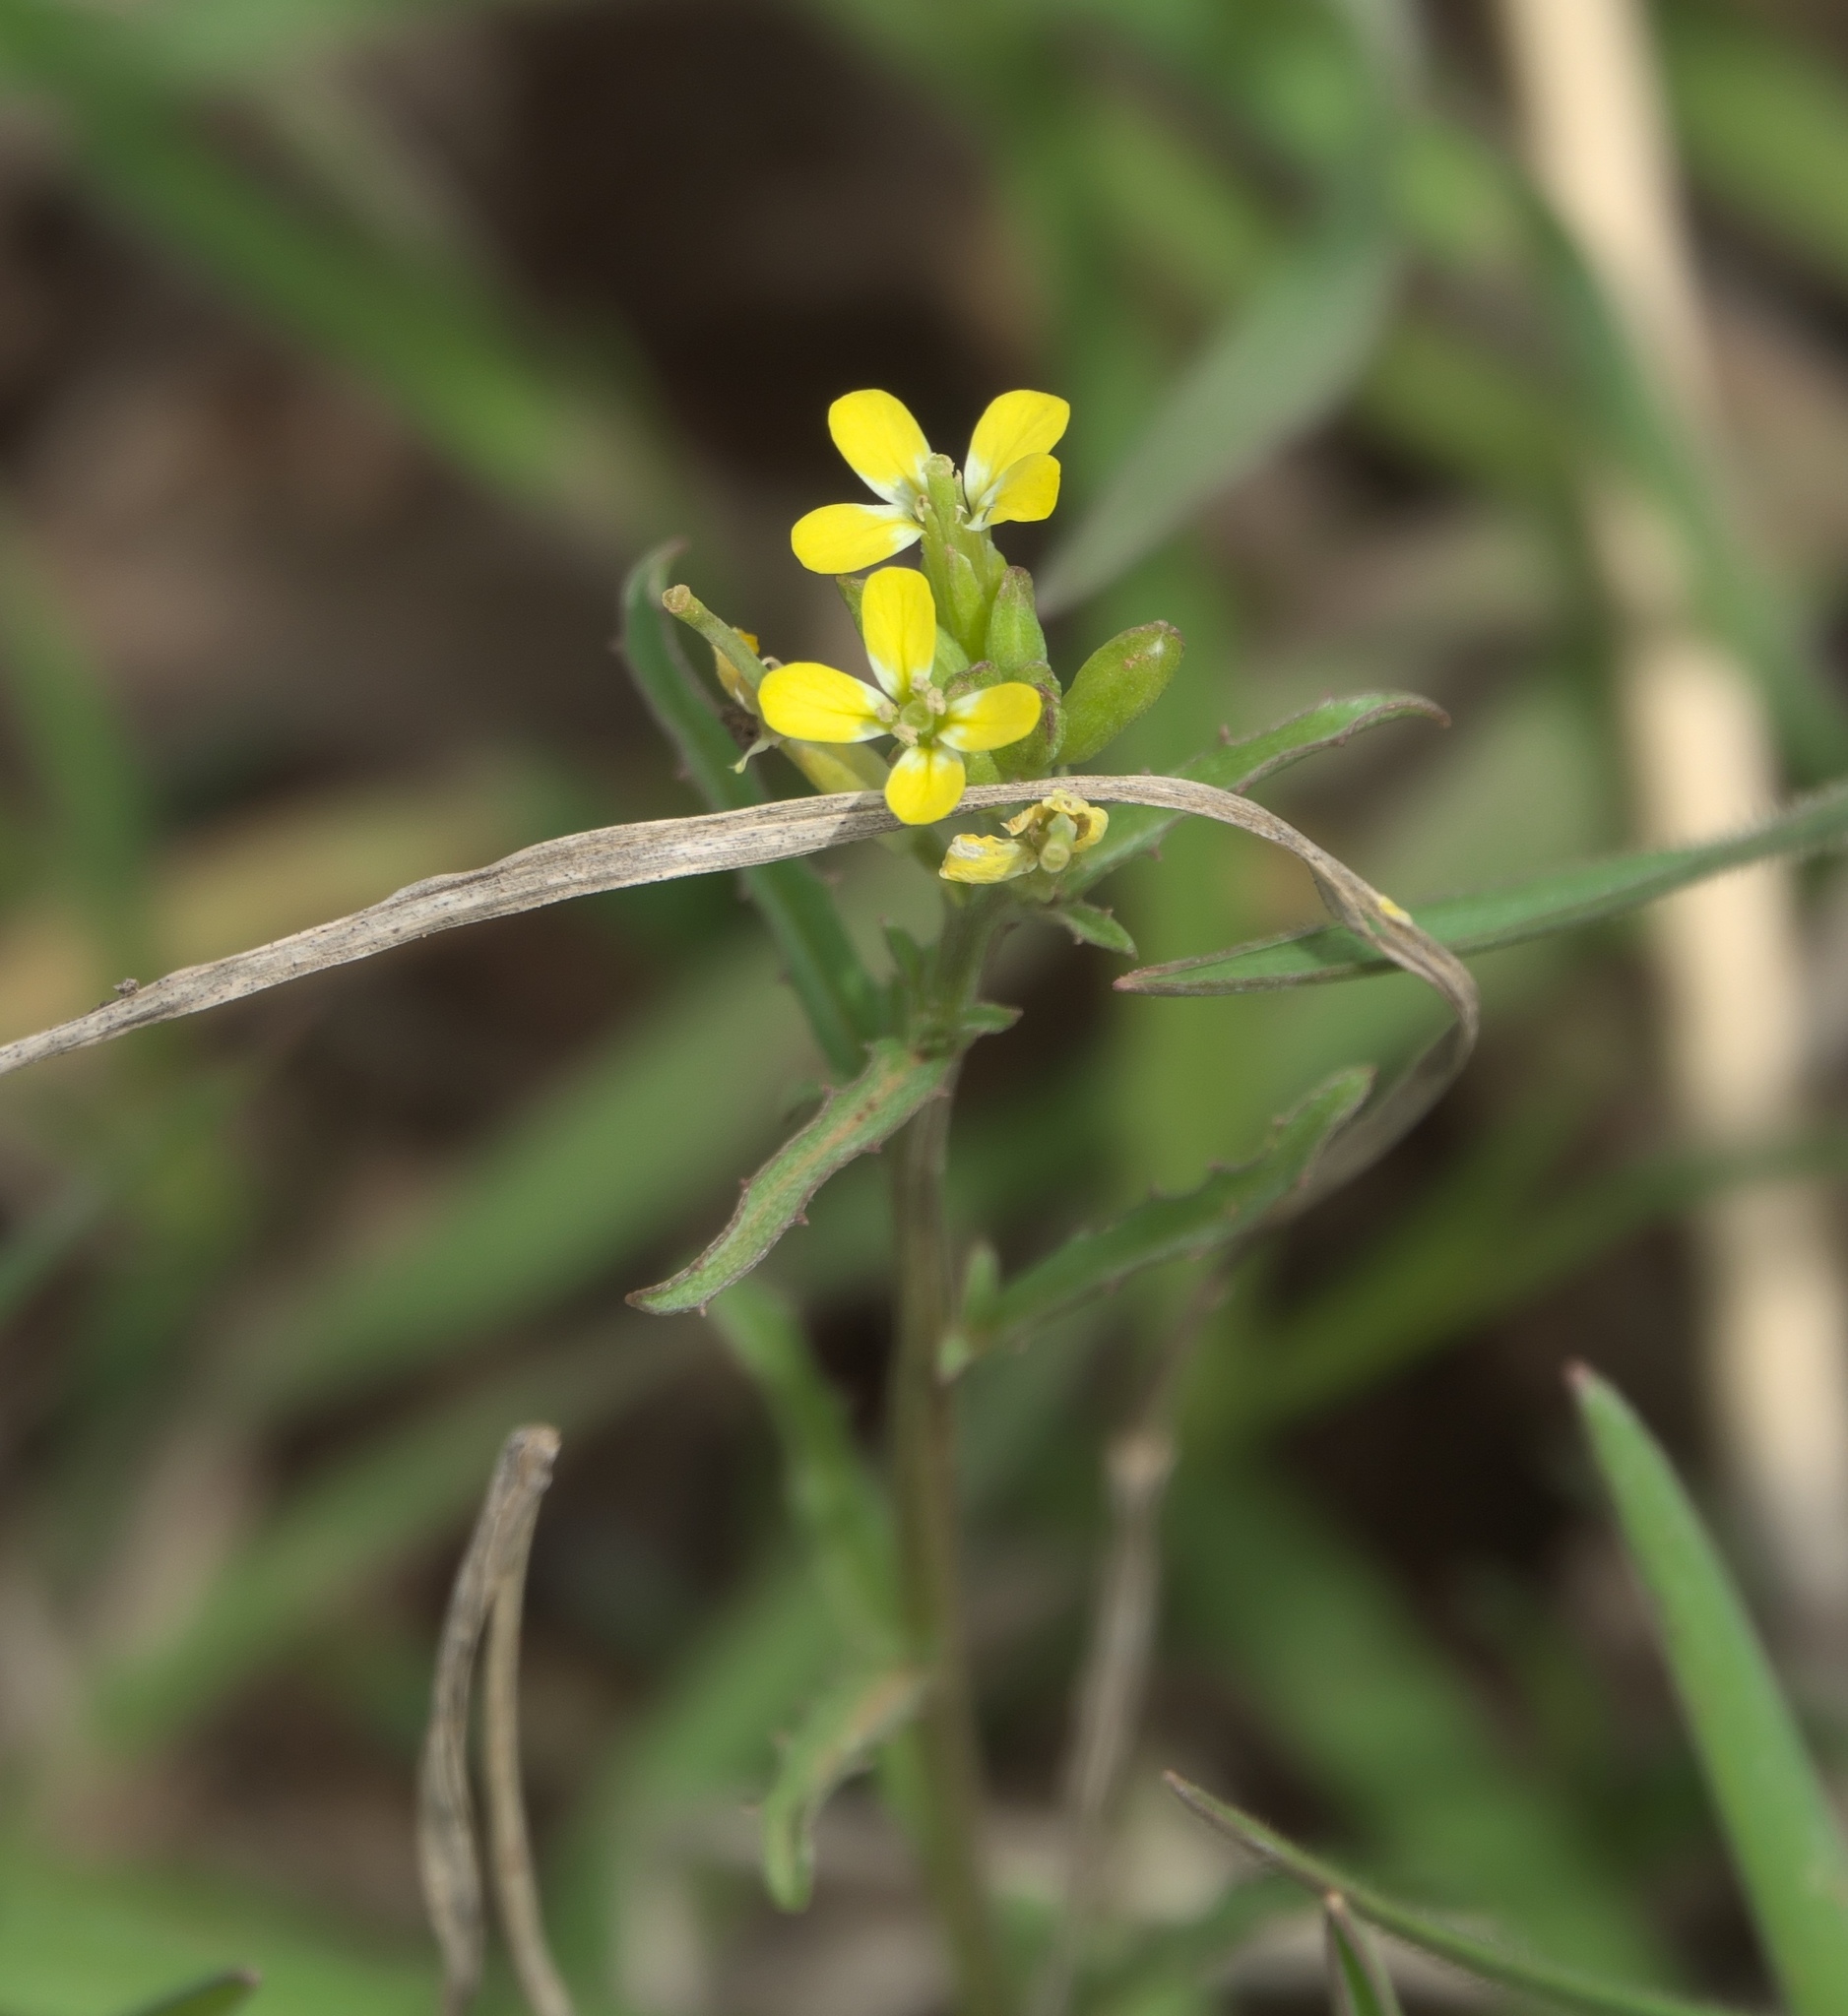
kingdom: Plantae
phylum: Tracheophyta
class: Magnoliopsida
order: Brassicales
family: Brassicaceae
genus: Erysimum
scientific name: Erysimum repandum
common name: Spreading wallflower
